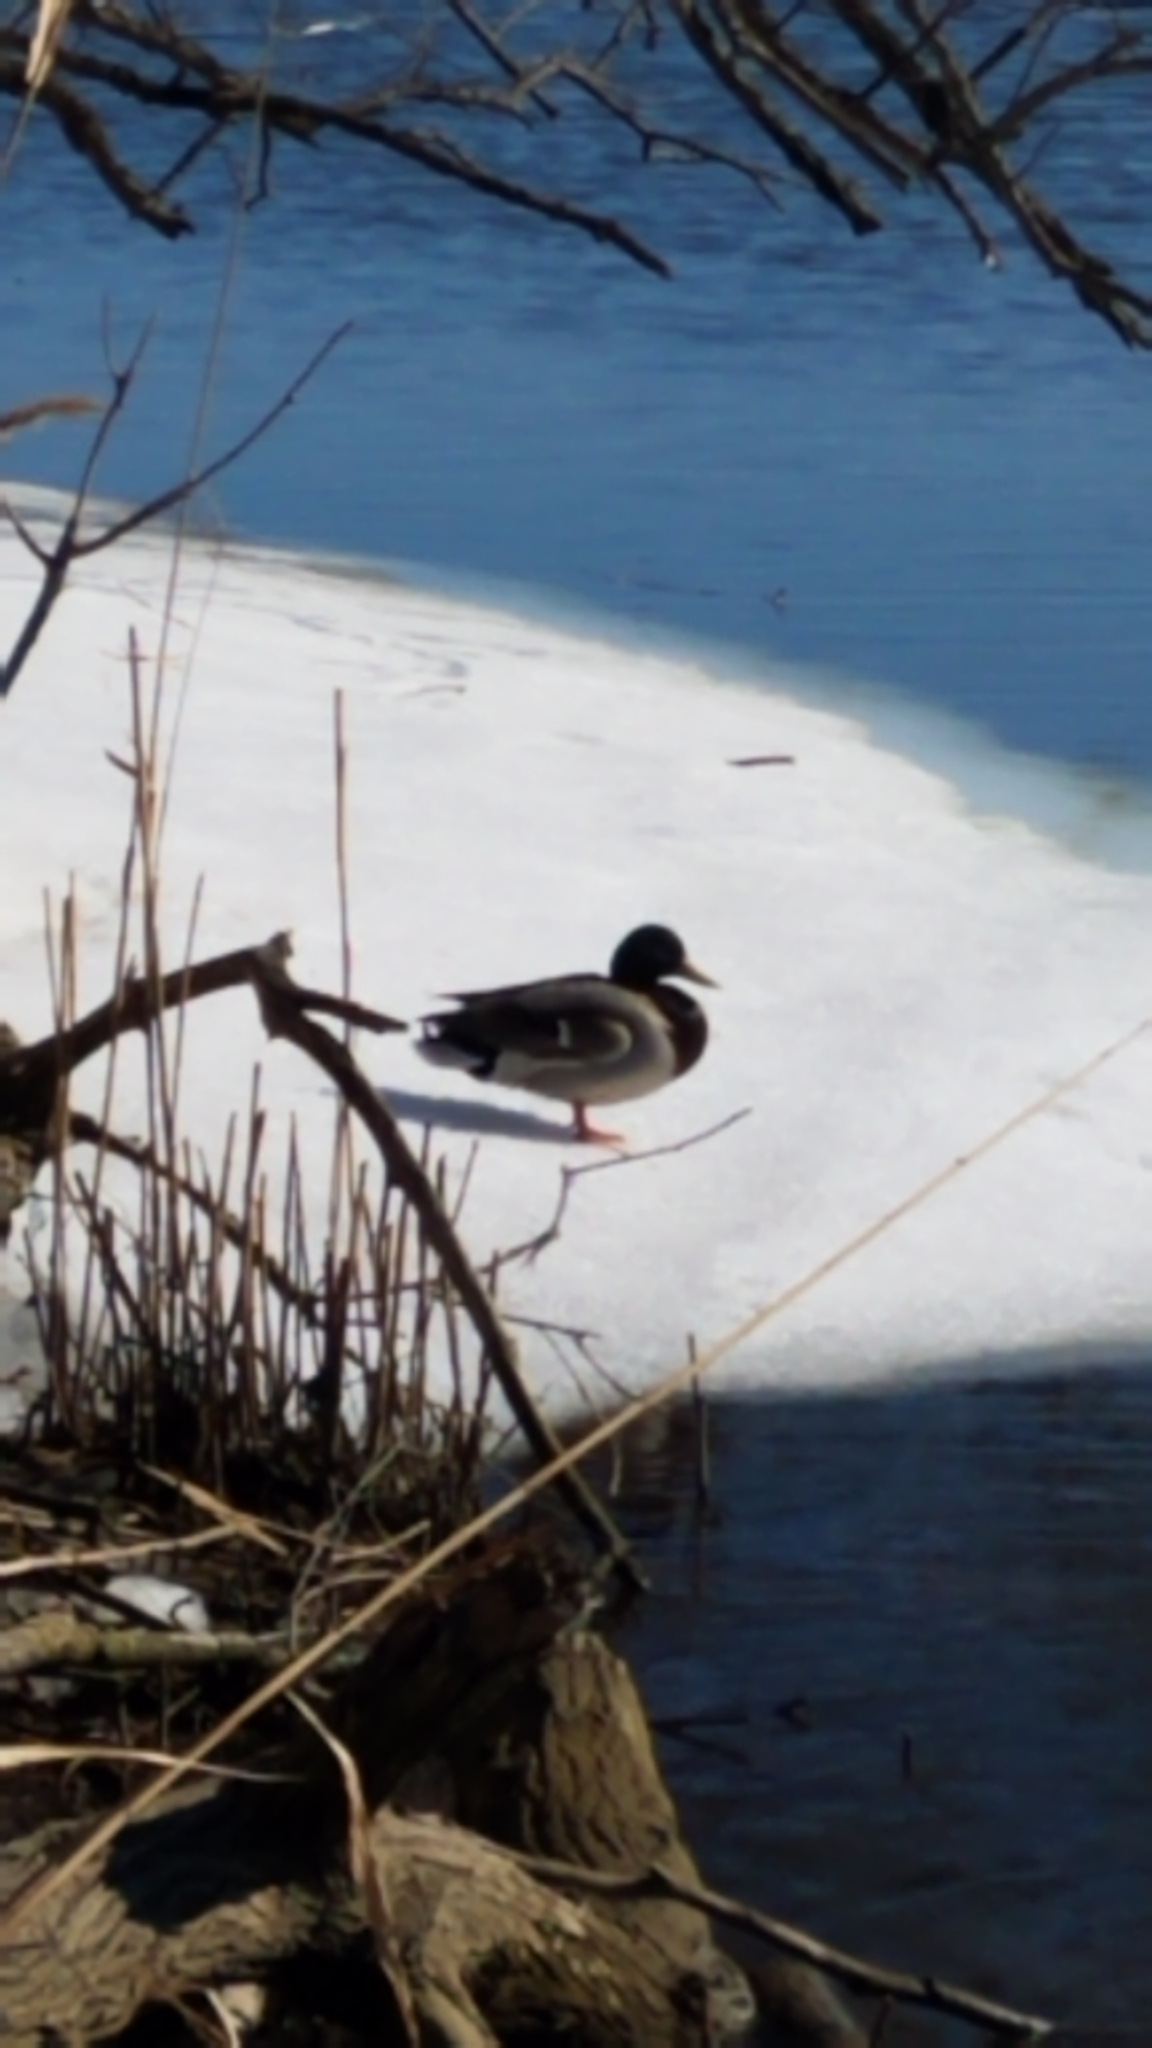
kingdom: Animalia
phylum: Chordata
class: Aves
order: Anseriformes
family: Anatidae
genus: Anas
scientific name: Anas platyrhynchos
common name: Mallard
